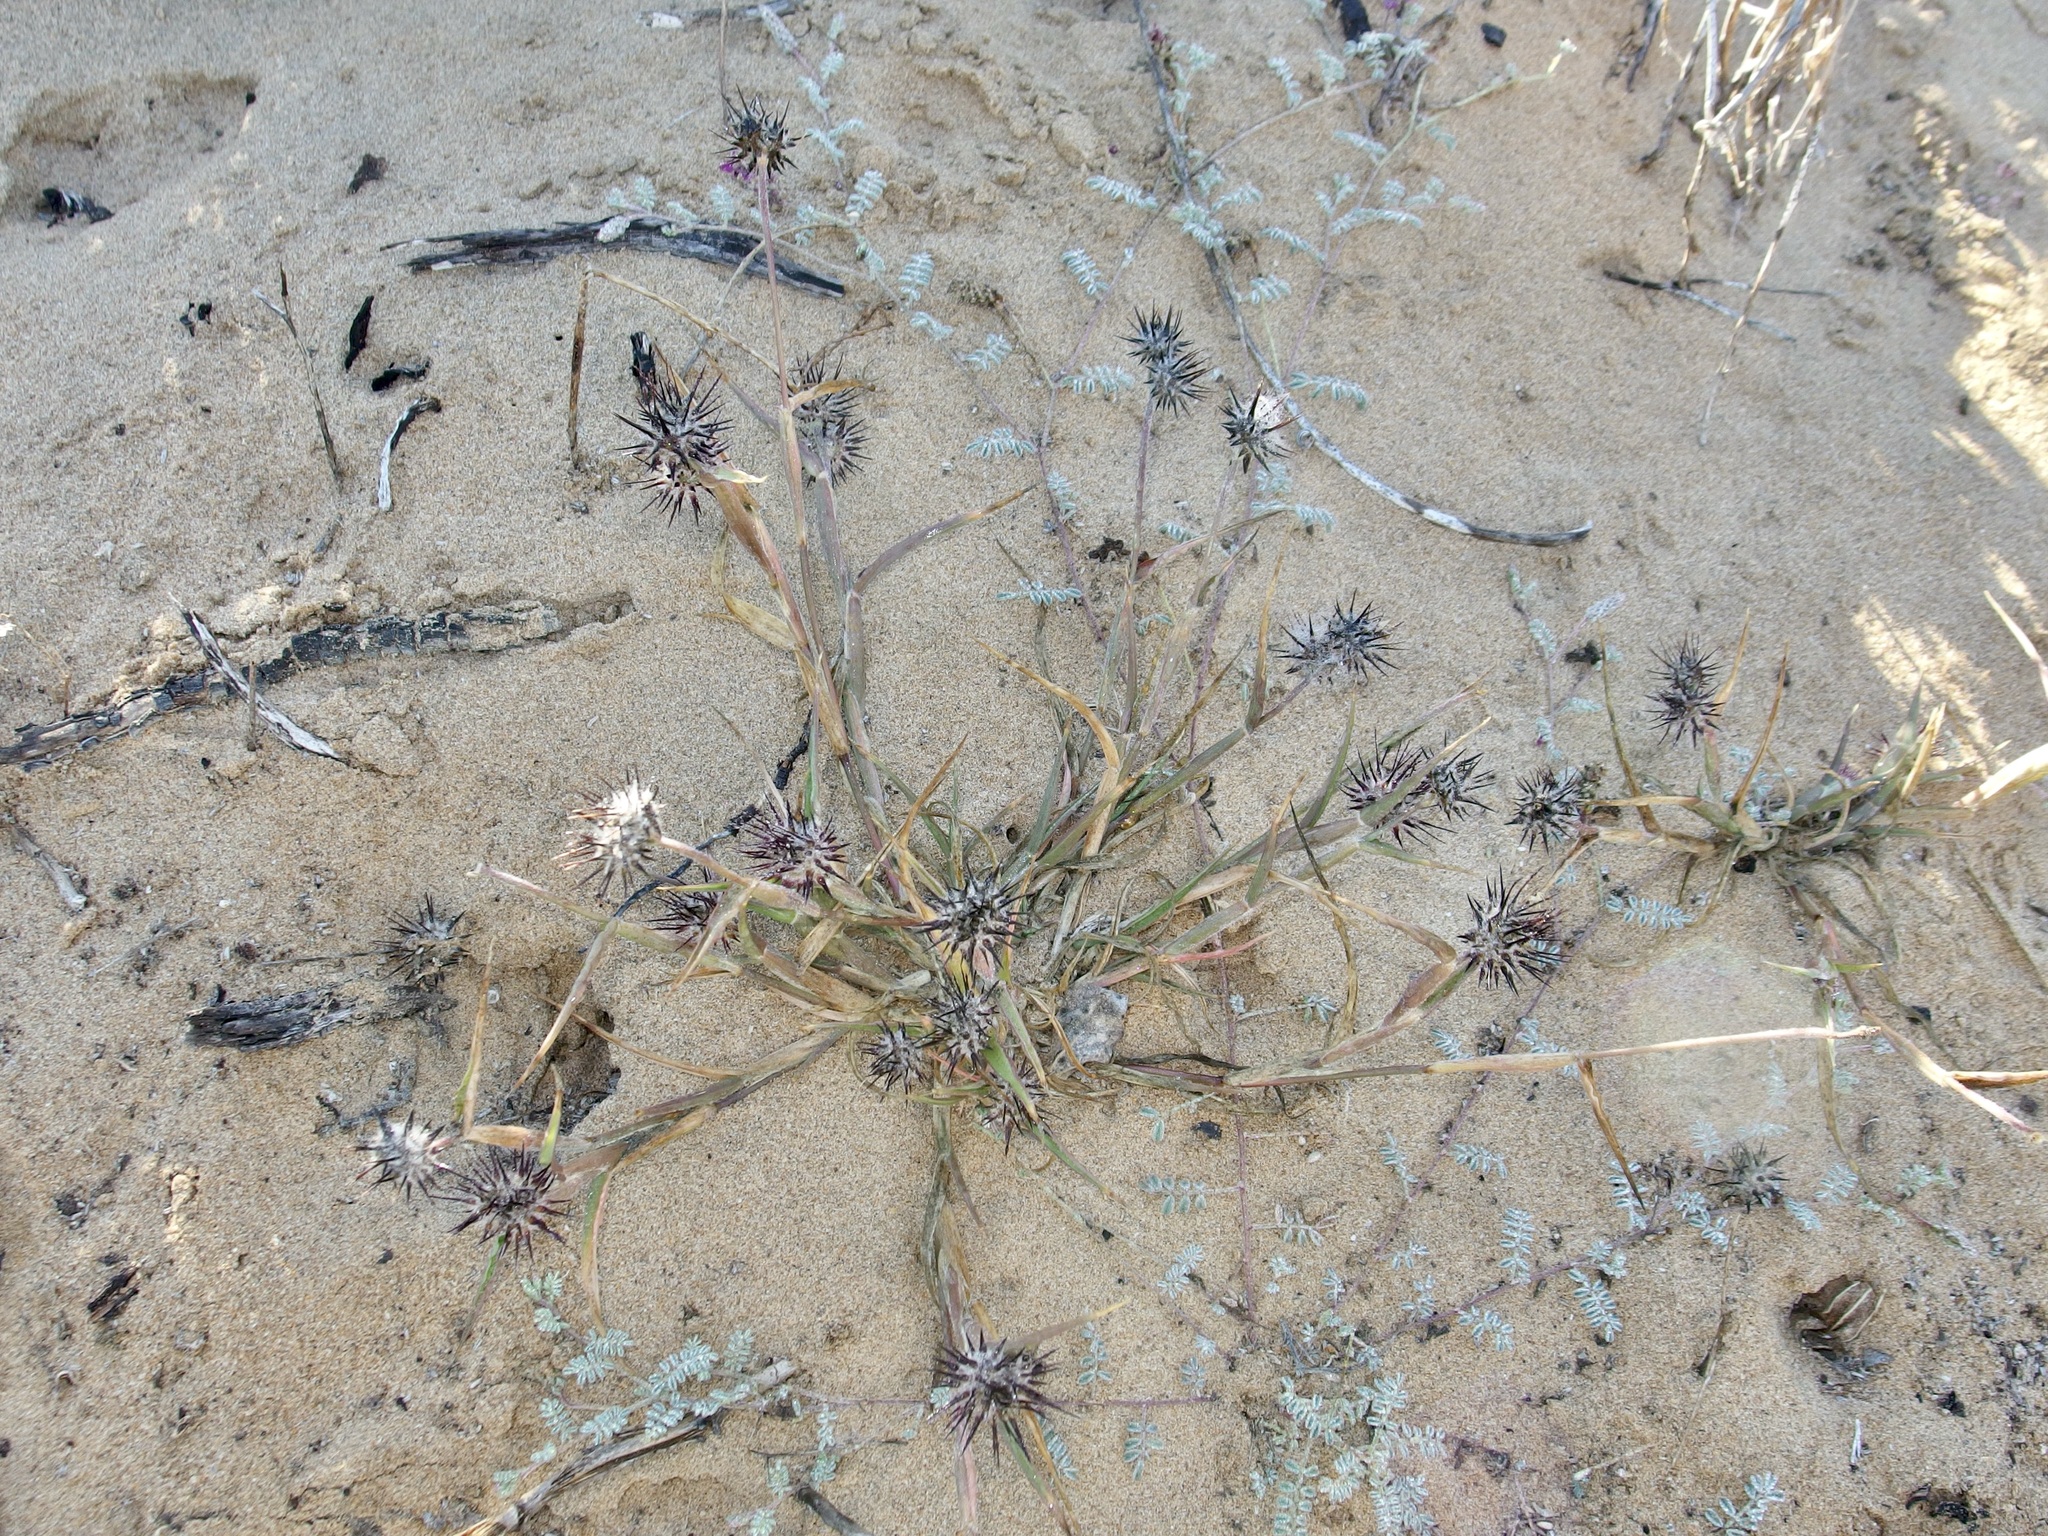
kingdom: Plantae
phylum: Tracheophyta
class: Liliopsida
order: Poales
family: Poaceae
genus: Cenchrus
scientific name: Cenchrus palmeri
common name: Giant sandbur
